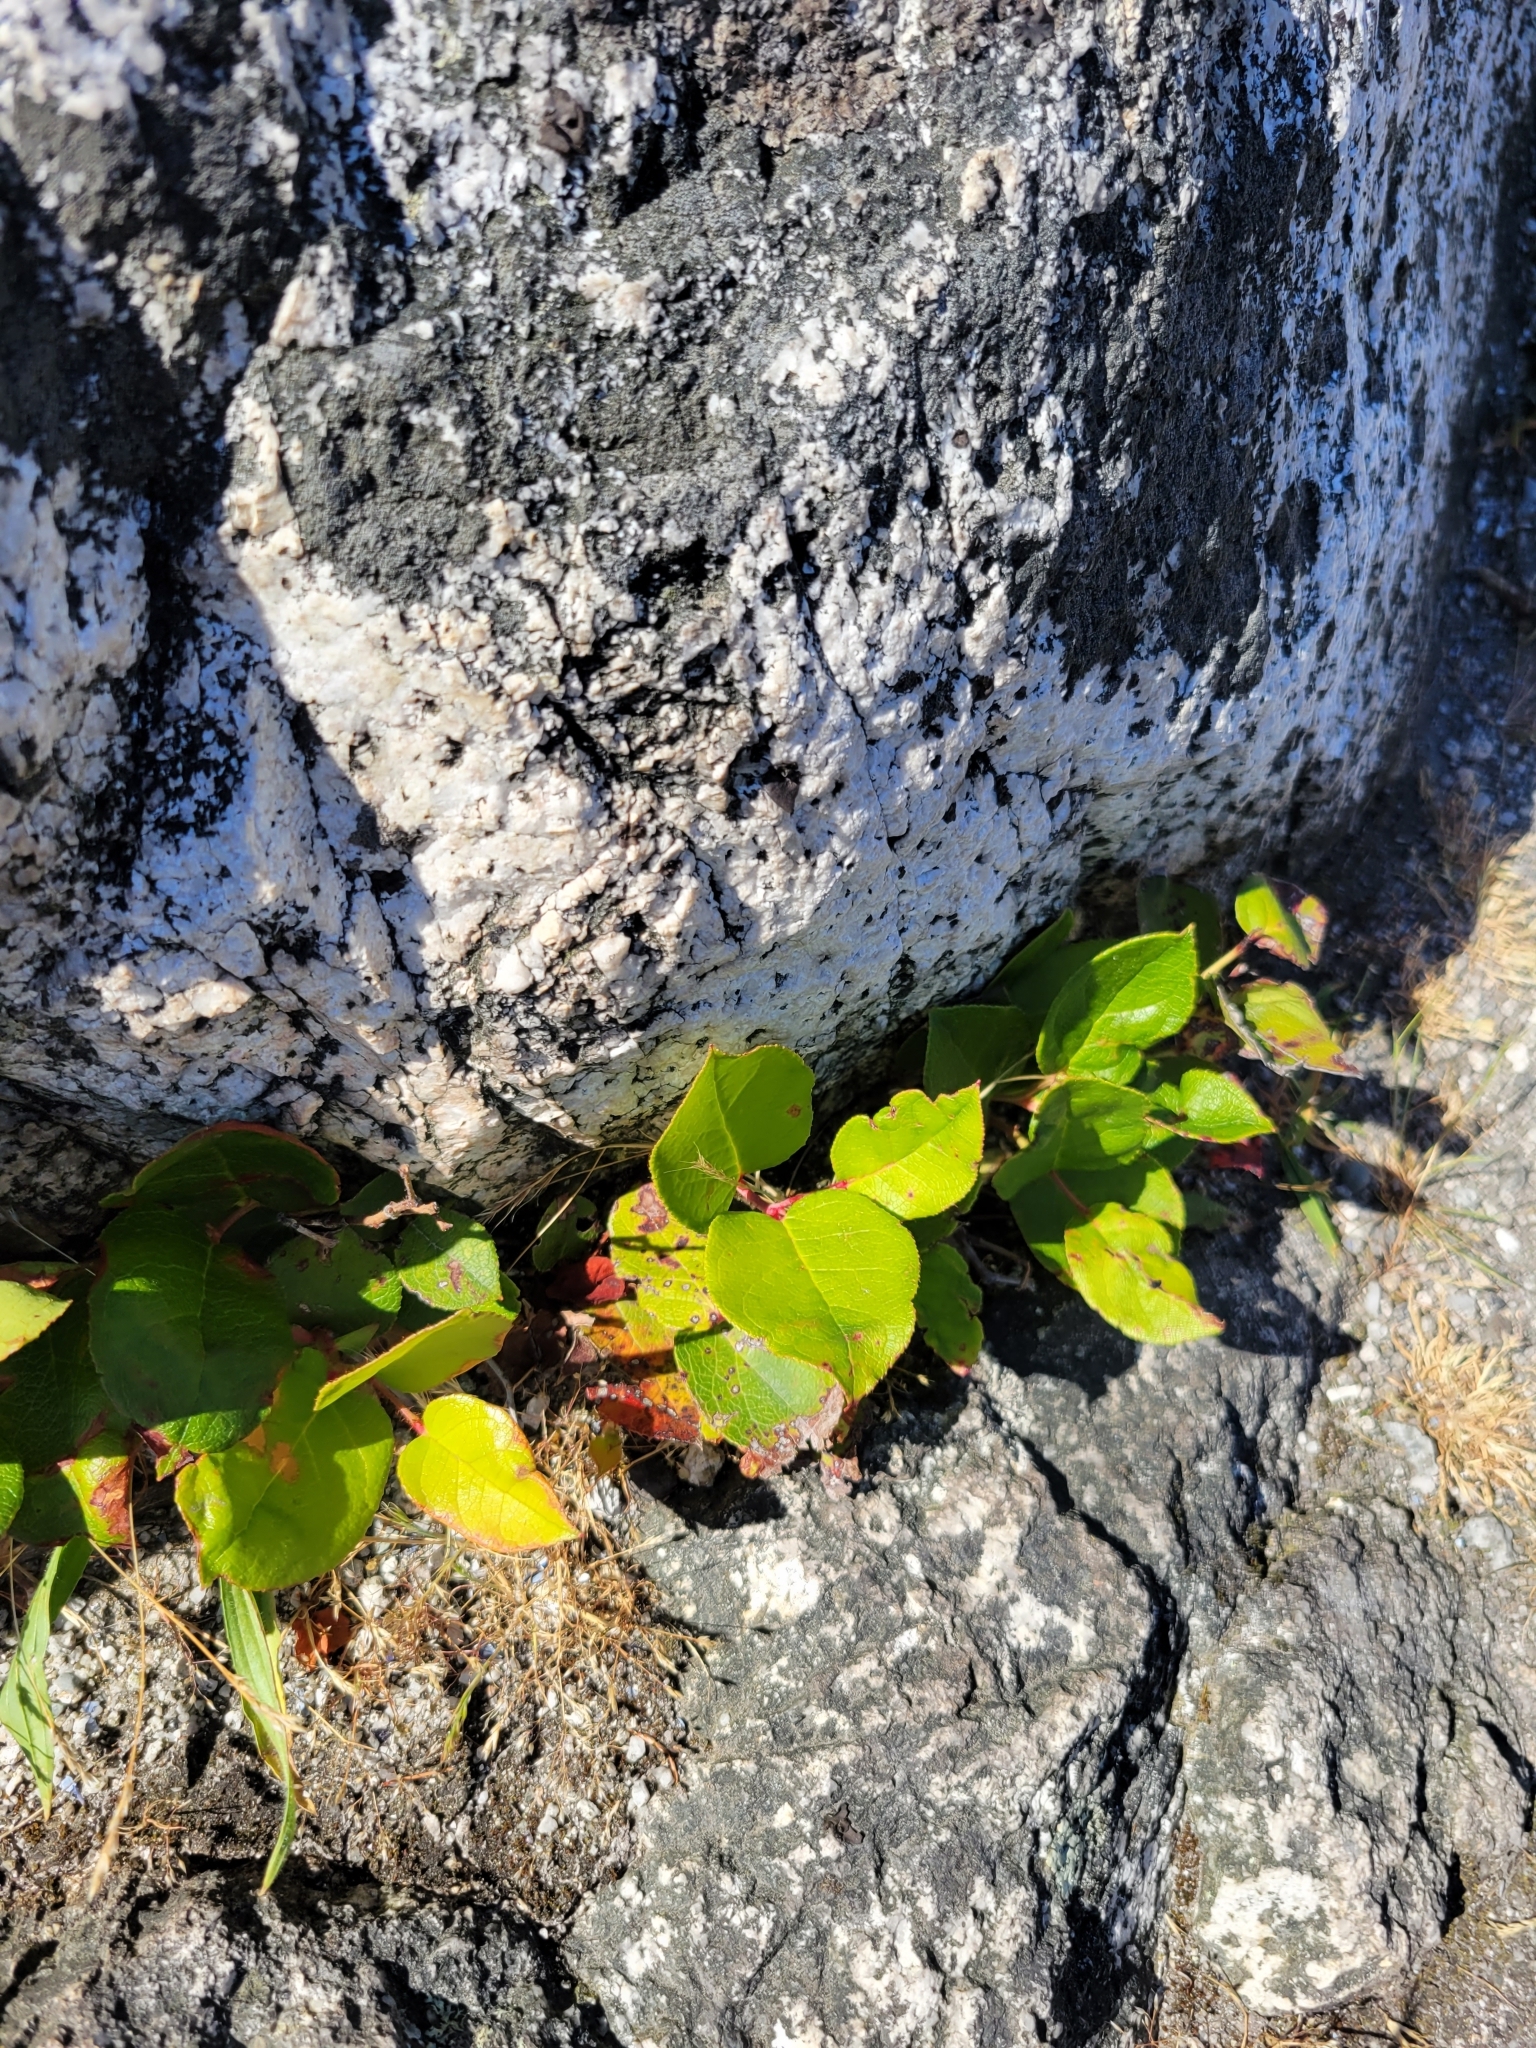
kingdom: Plantae
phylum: Tracheophyta
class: Magnoliopsida
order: Ericales
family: Ericaceae
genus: Gaultheria
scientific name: Gaultheria shallon
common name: Shallon
